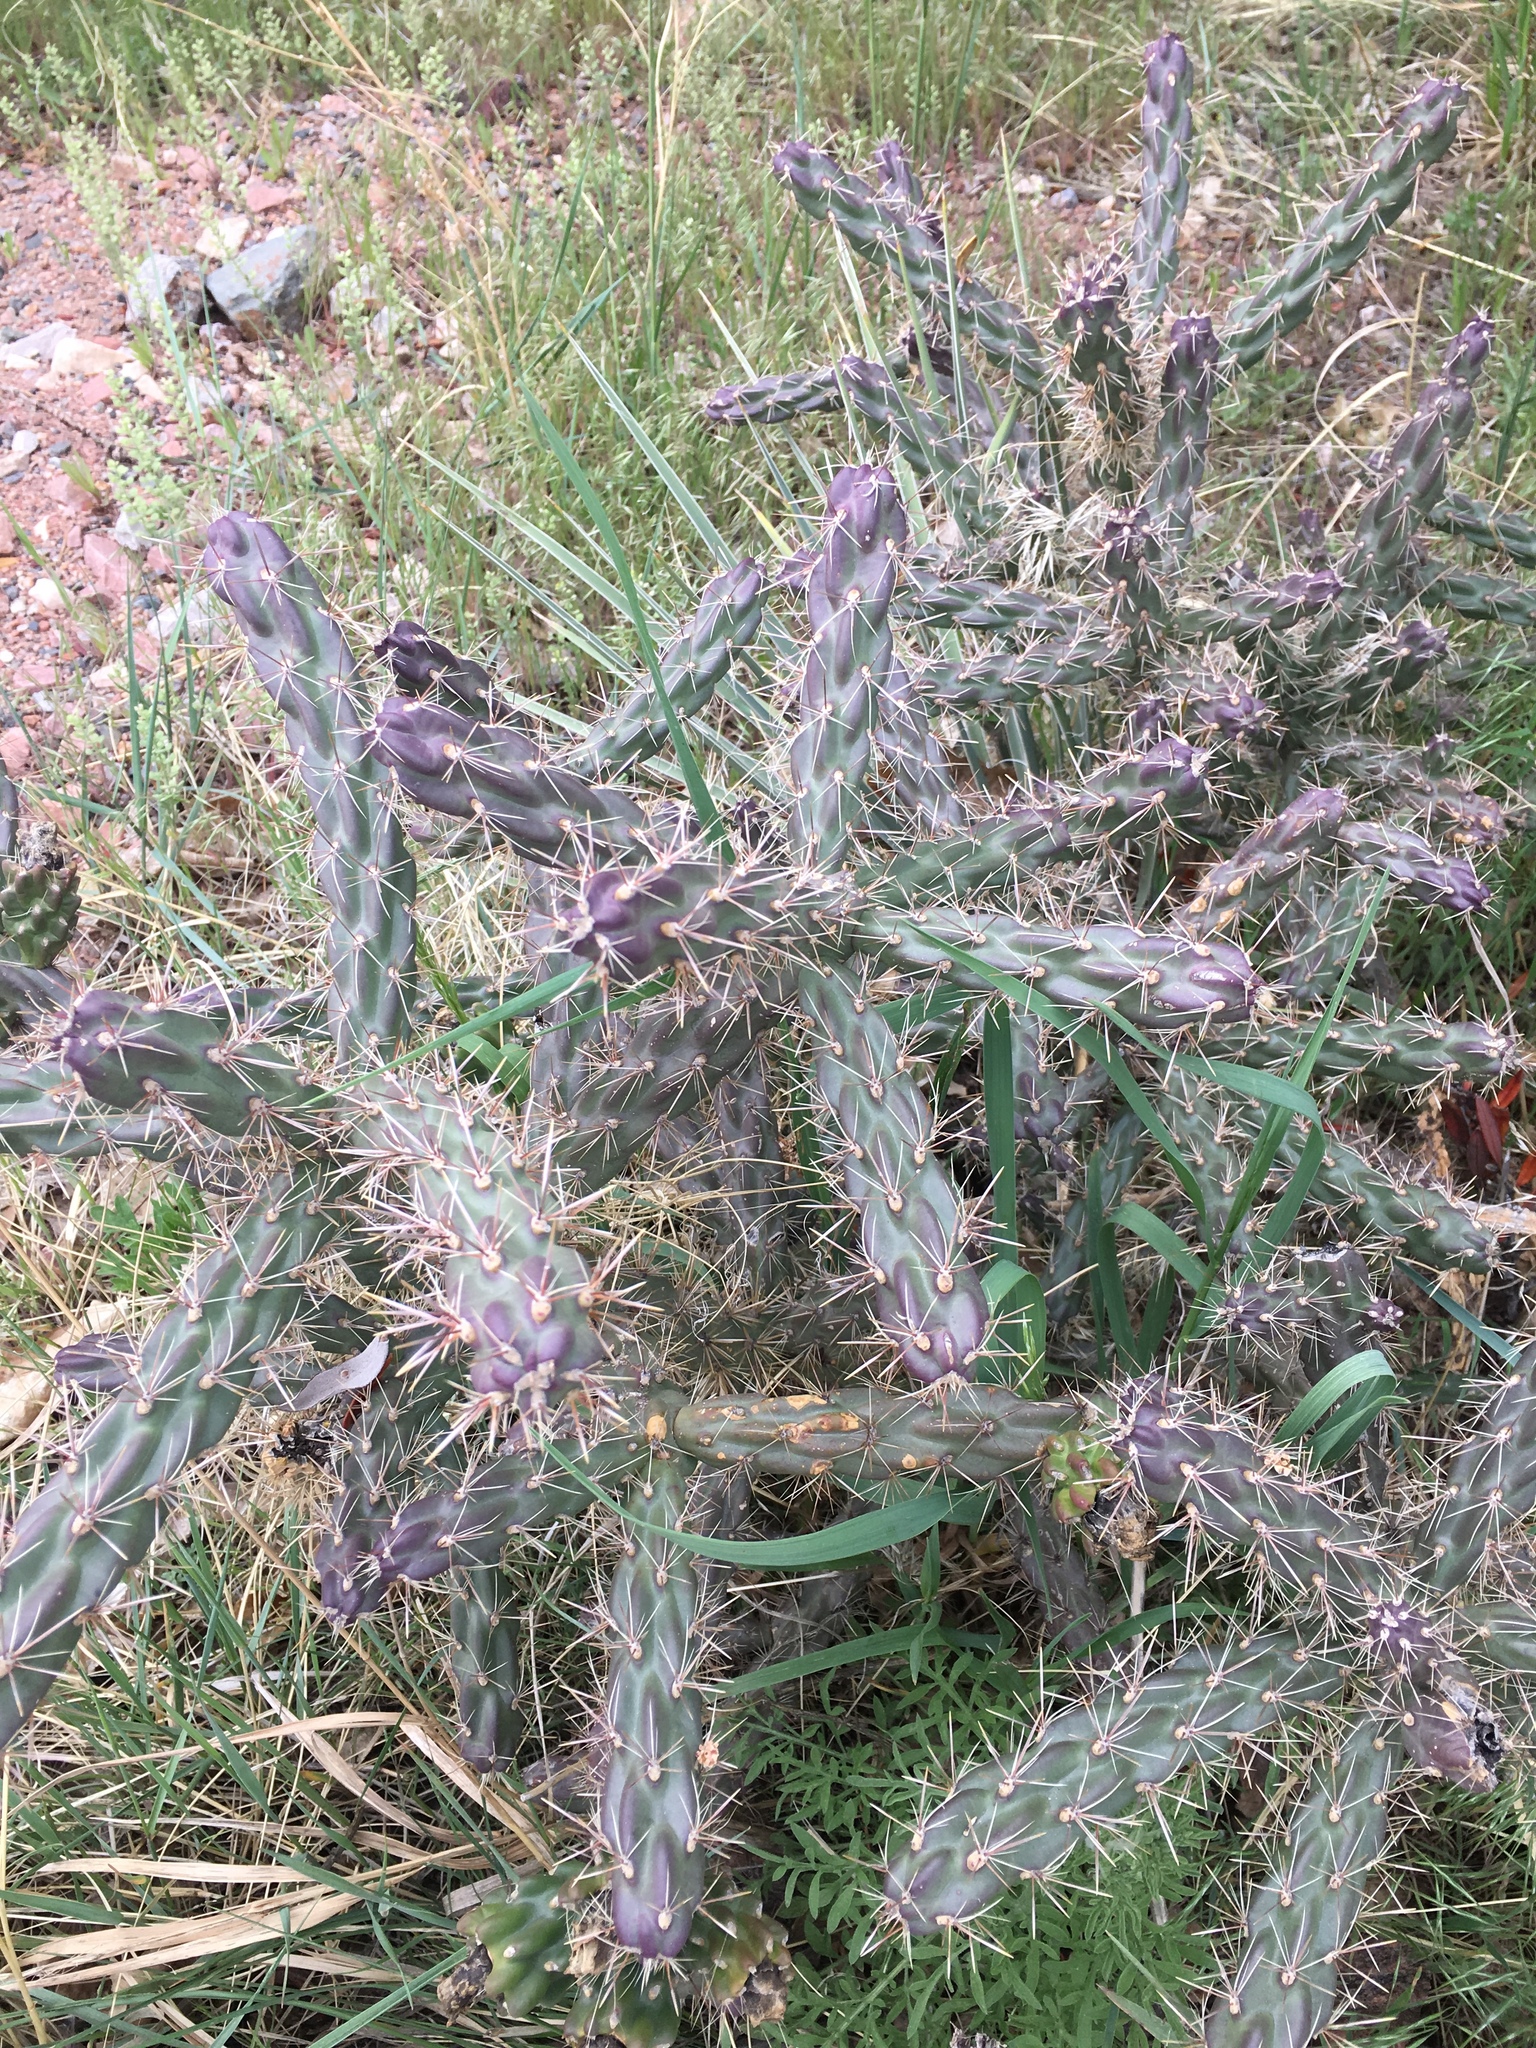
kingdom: Plantae
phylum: Tracheophyta
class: Magnoliopsida
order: Caryophyllales
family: Cactaceae
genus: Cylindropuntia
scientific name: Cylindropuntia imbricata
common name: Candelabrum cactus
